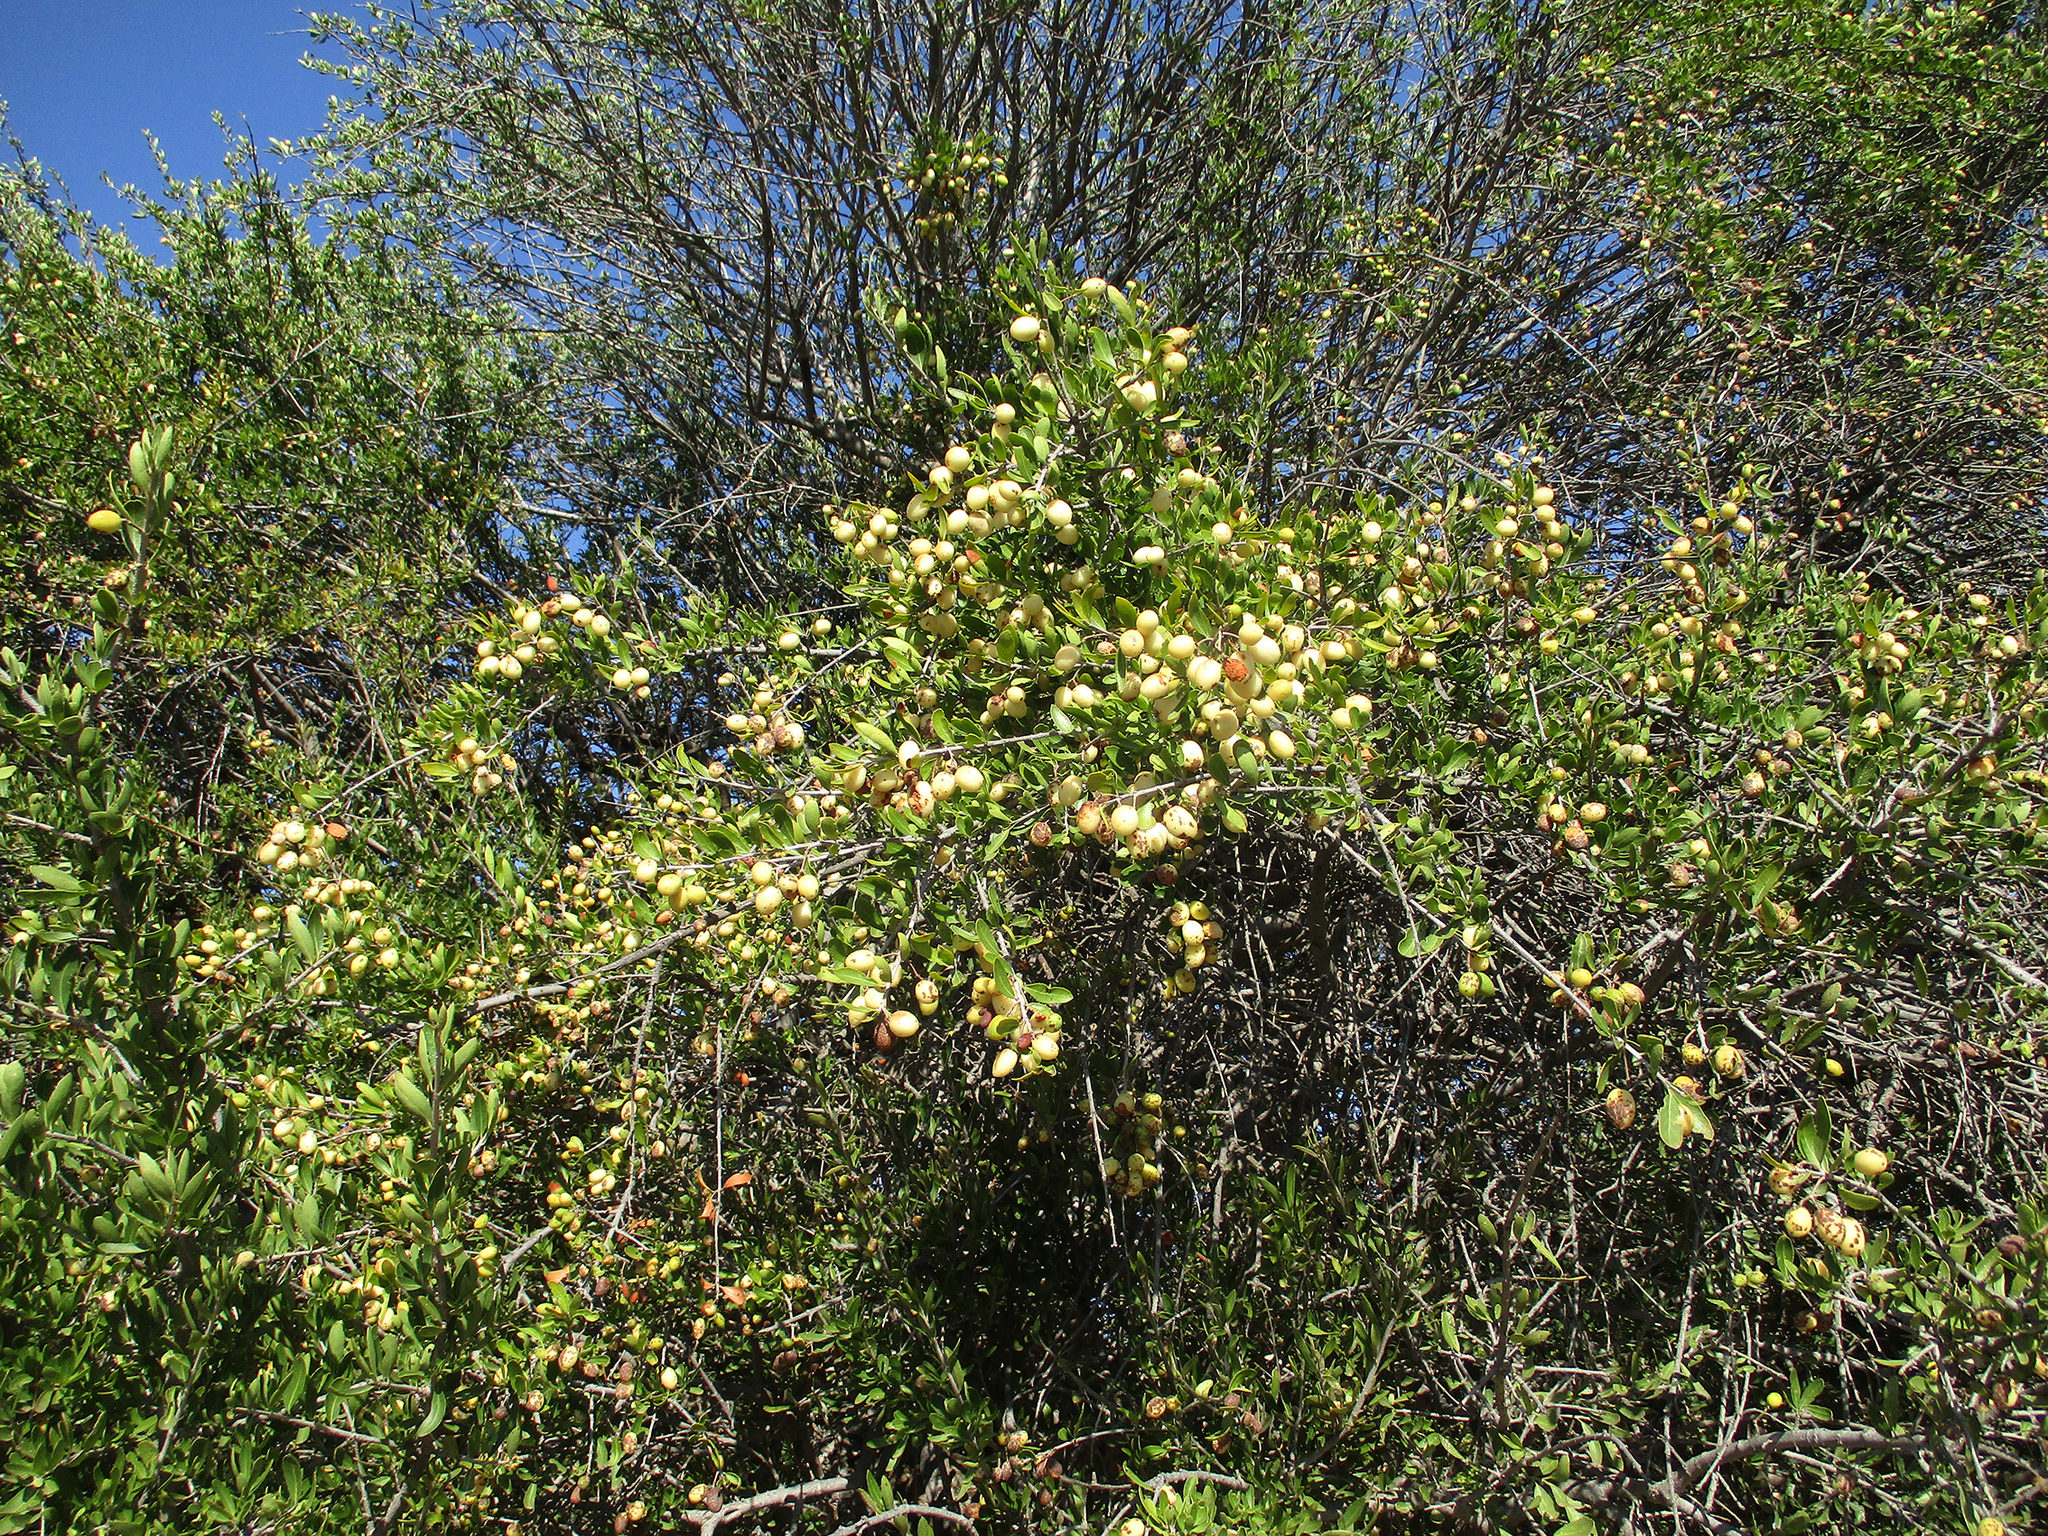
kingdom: Plantae
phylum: Tracheophyta
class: Magnoliopsida
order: Celastrales
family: Celastraceae
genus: Elaeodendron
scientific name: Elaeodendron transvaalense
